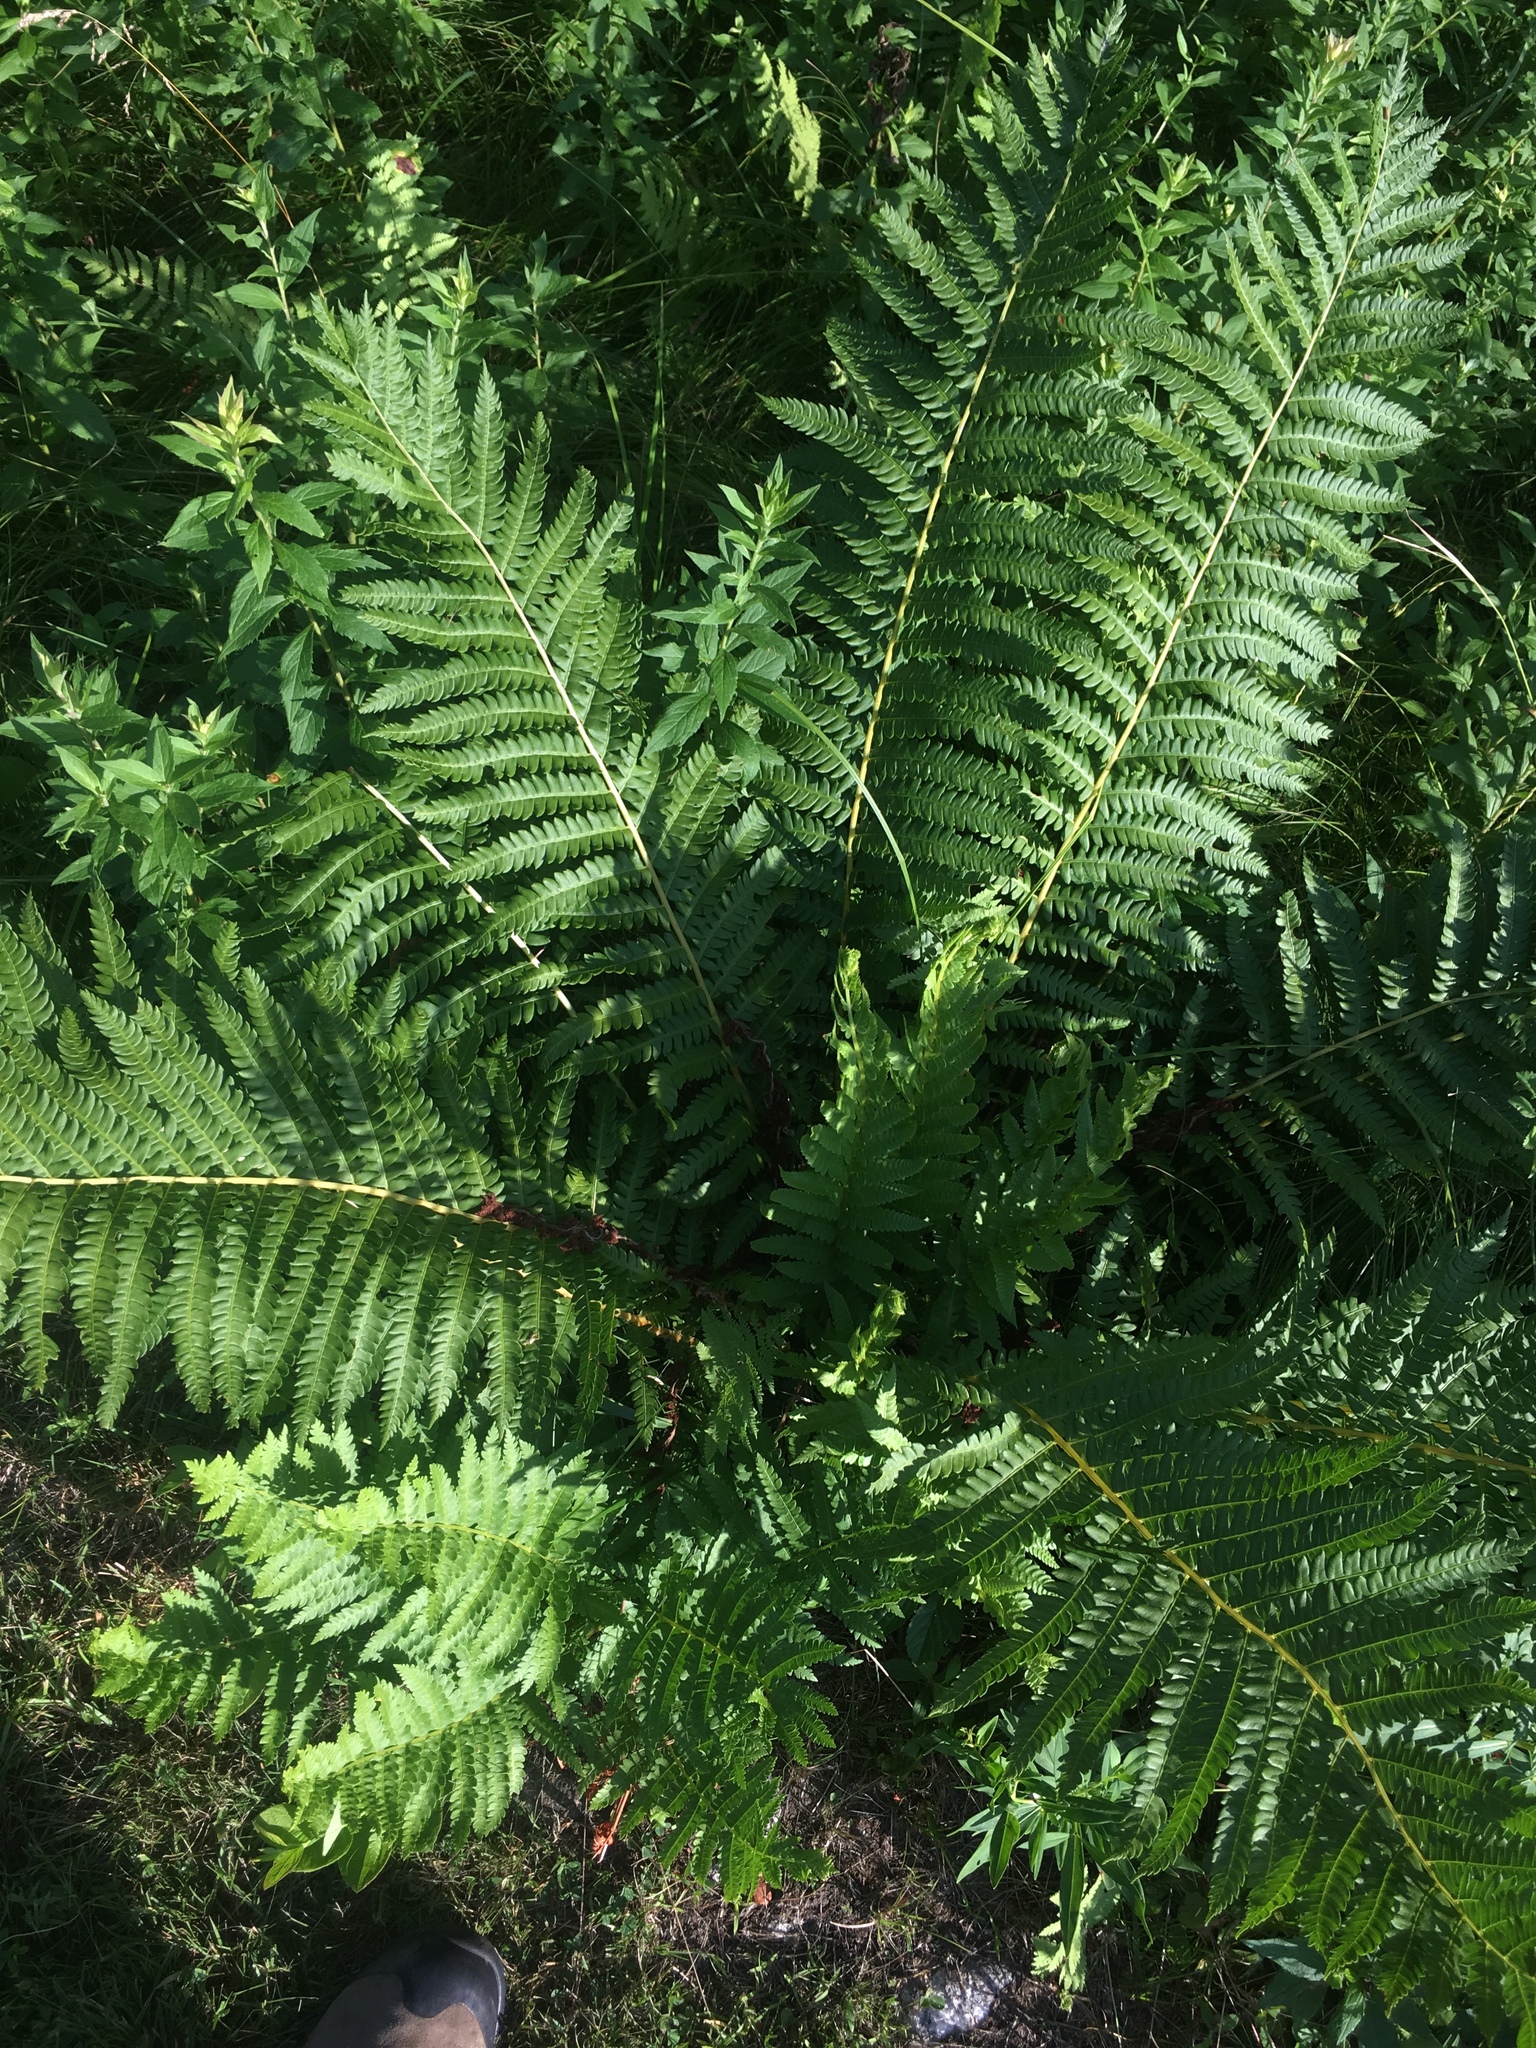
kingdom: Plantae
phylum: Tracheophyta
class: Polypodiopsida
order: Osmundales
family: Osmundaceae
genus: Osmundastrum
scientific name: Osmundastrum cinnamomeum
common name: Cinnamon fern
